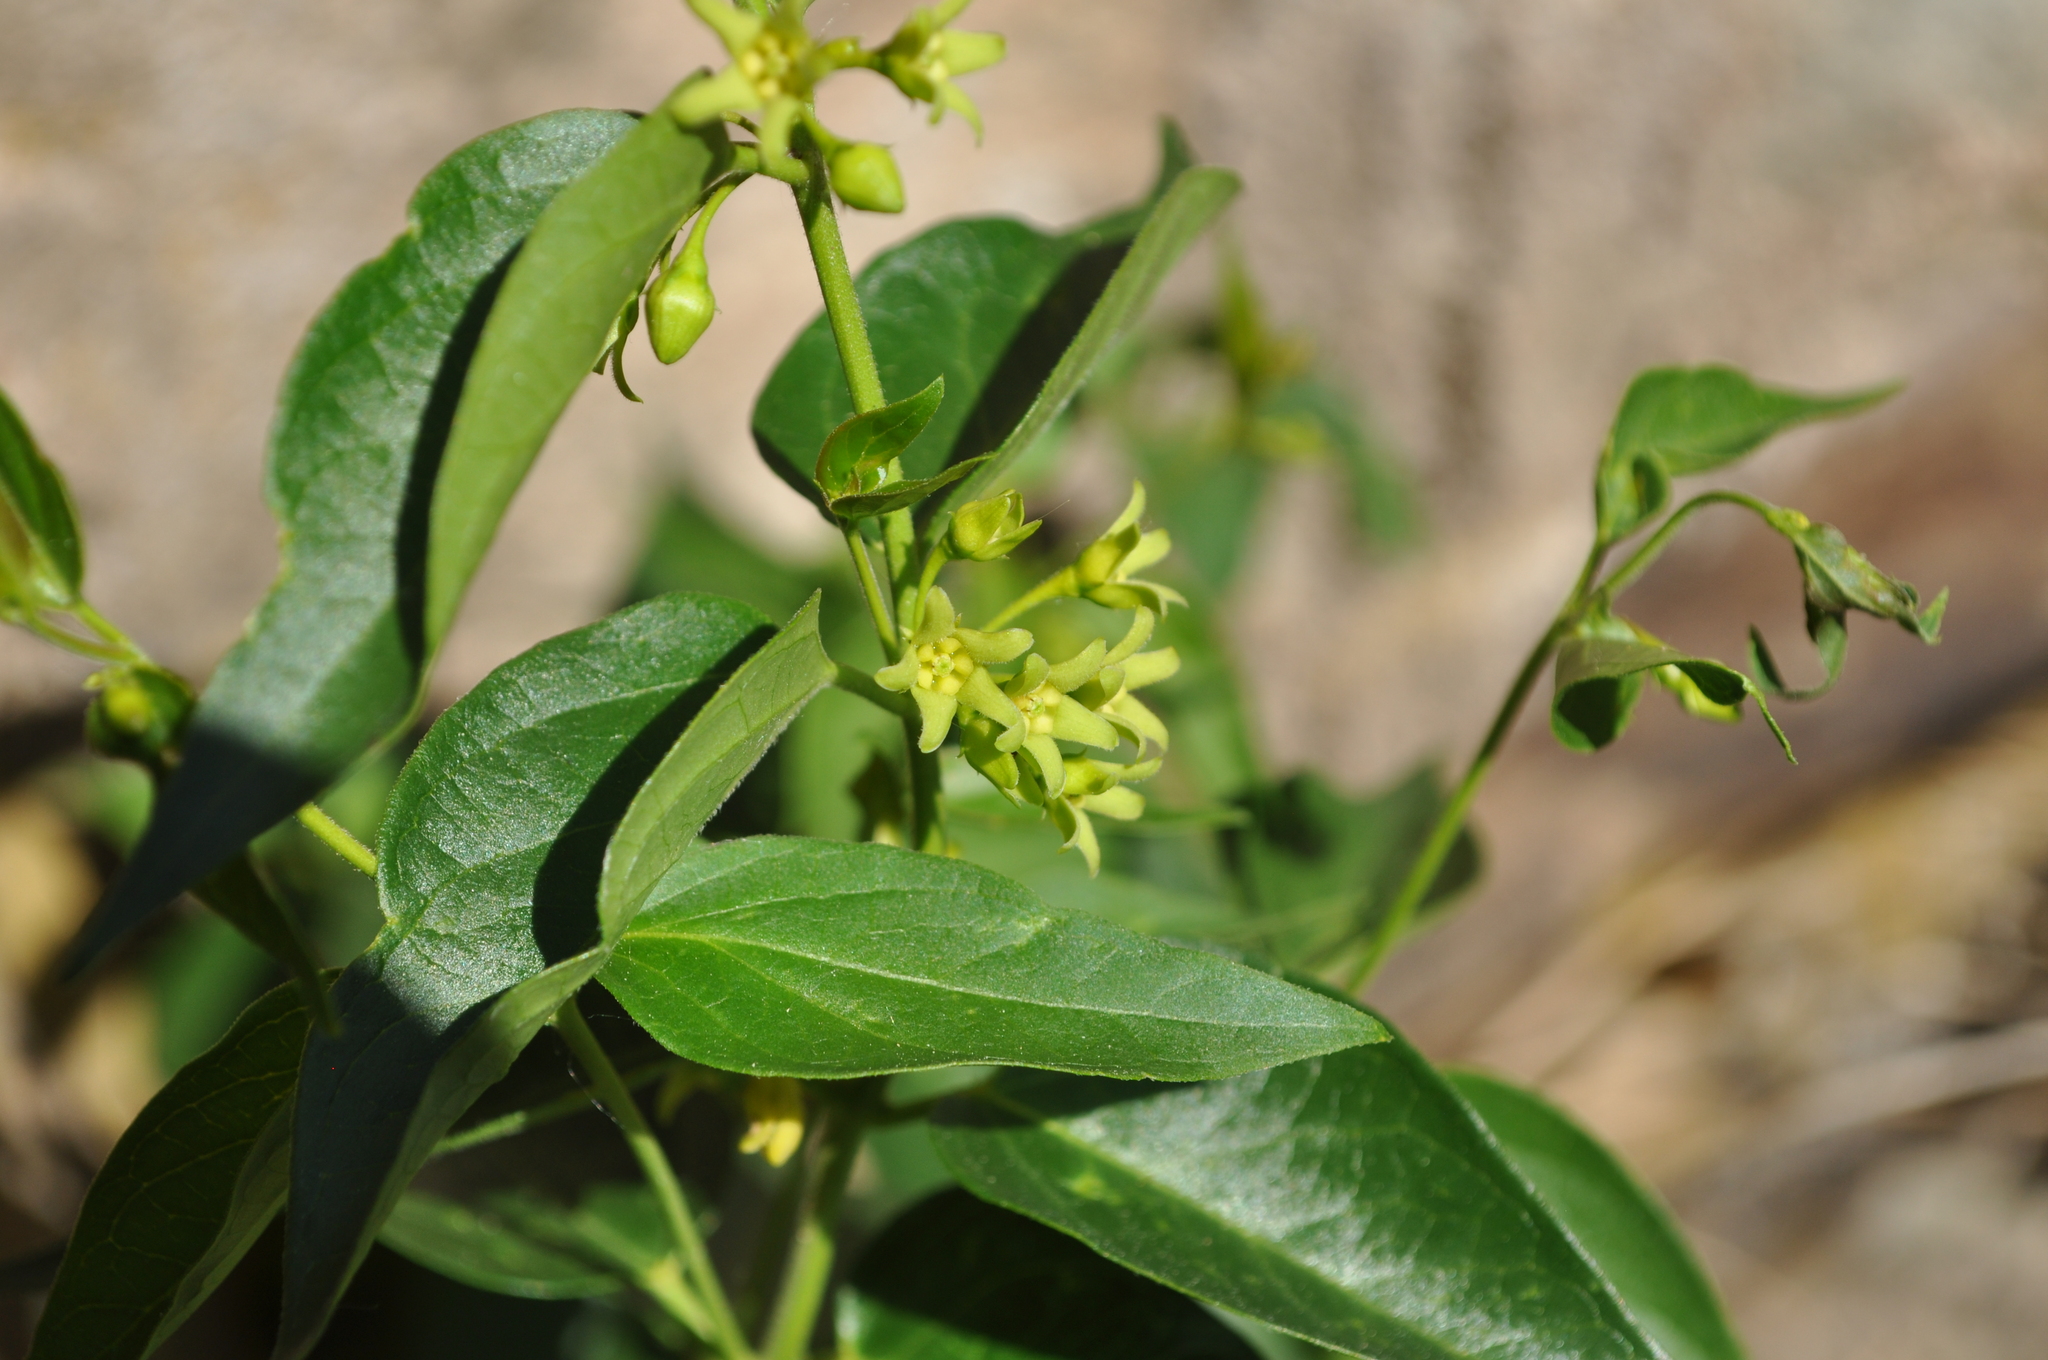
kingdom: Plantae
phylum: Tracheophyta
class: Magnoliopsida
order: Gentianales
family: Apocynaceae
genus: Vincetoxicum
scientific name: Vincetoxicum hirundinaria
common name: White swallowwort
